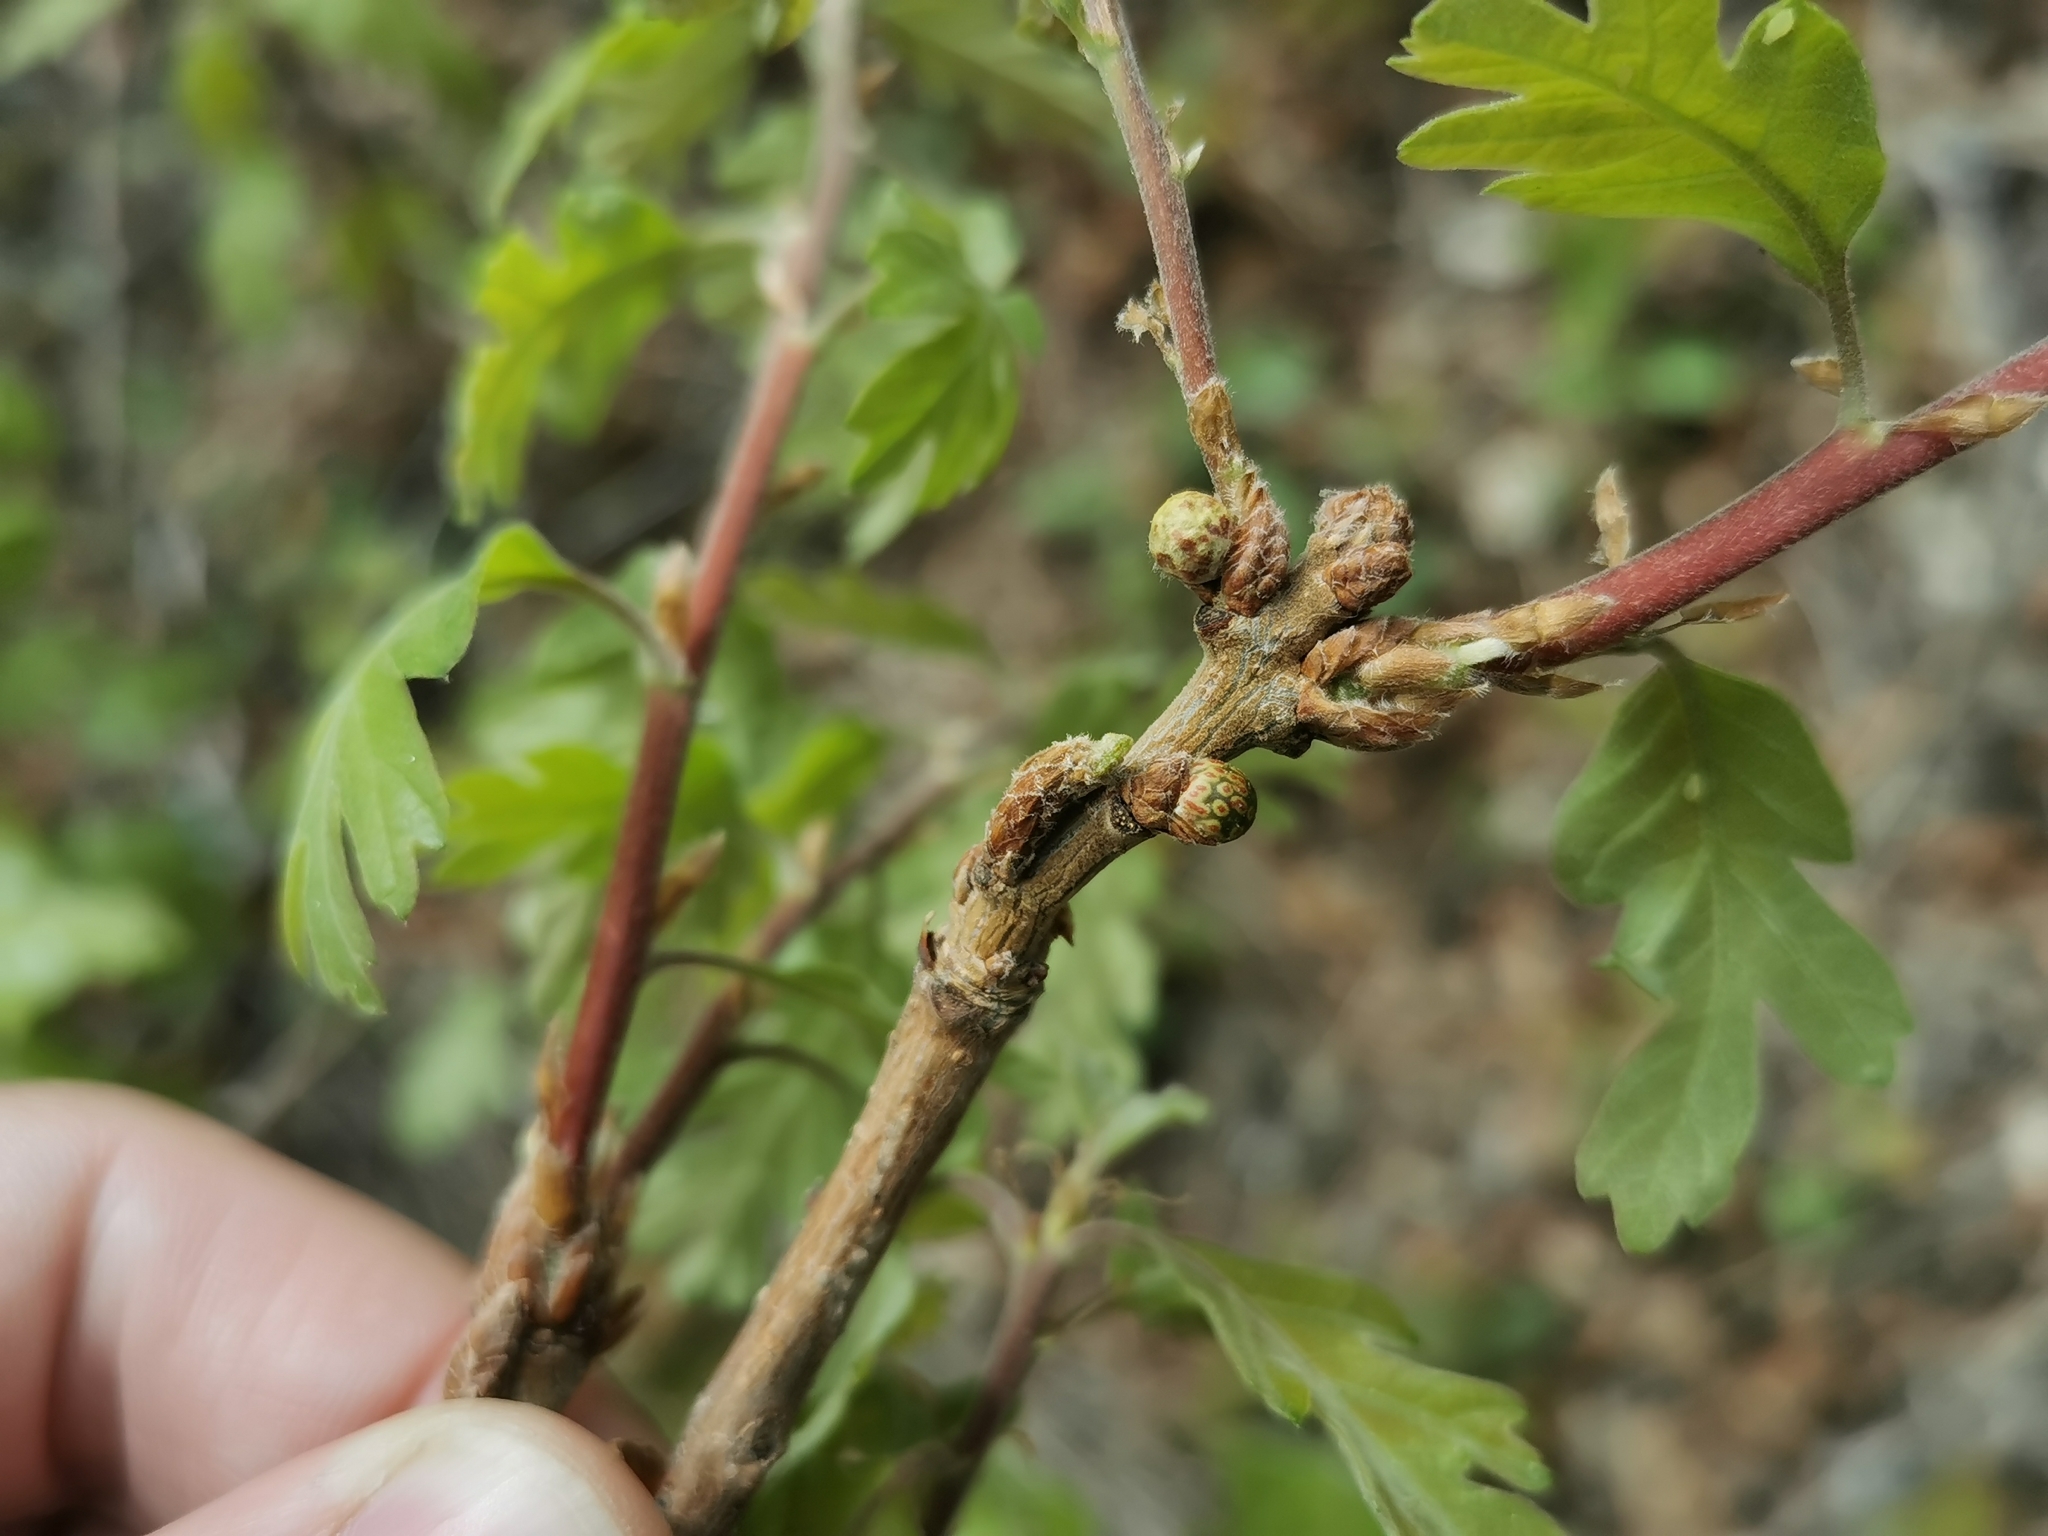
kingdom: Animalia
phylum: Arthropoda
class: Insecta
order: Hymenoptera
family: Cynipidae
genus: Neuroterus
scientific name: Neuroterus alexandrae
